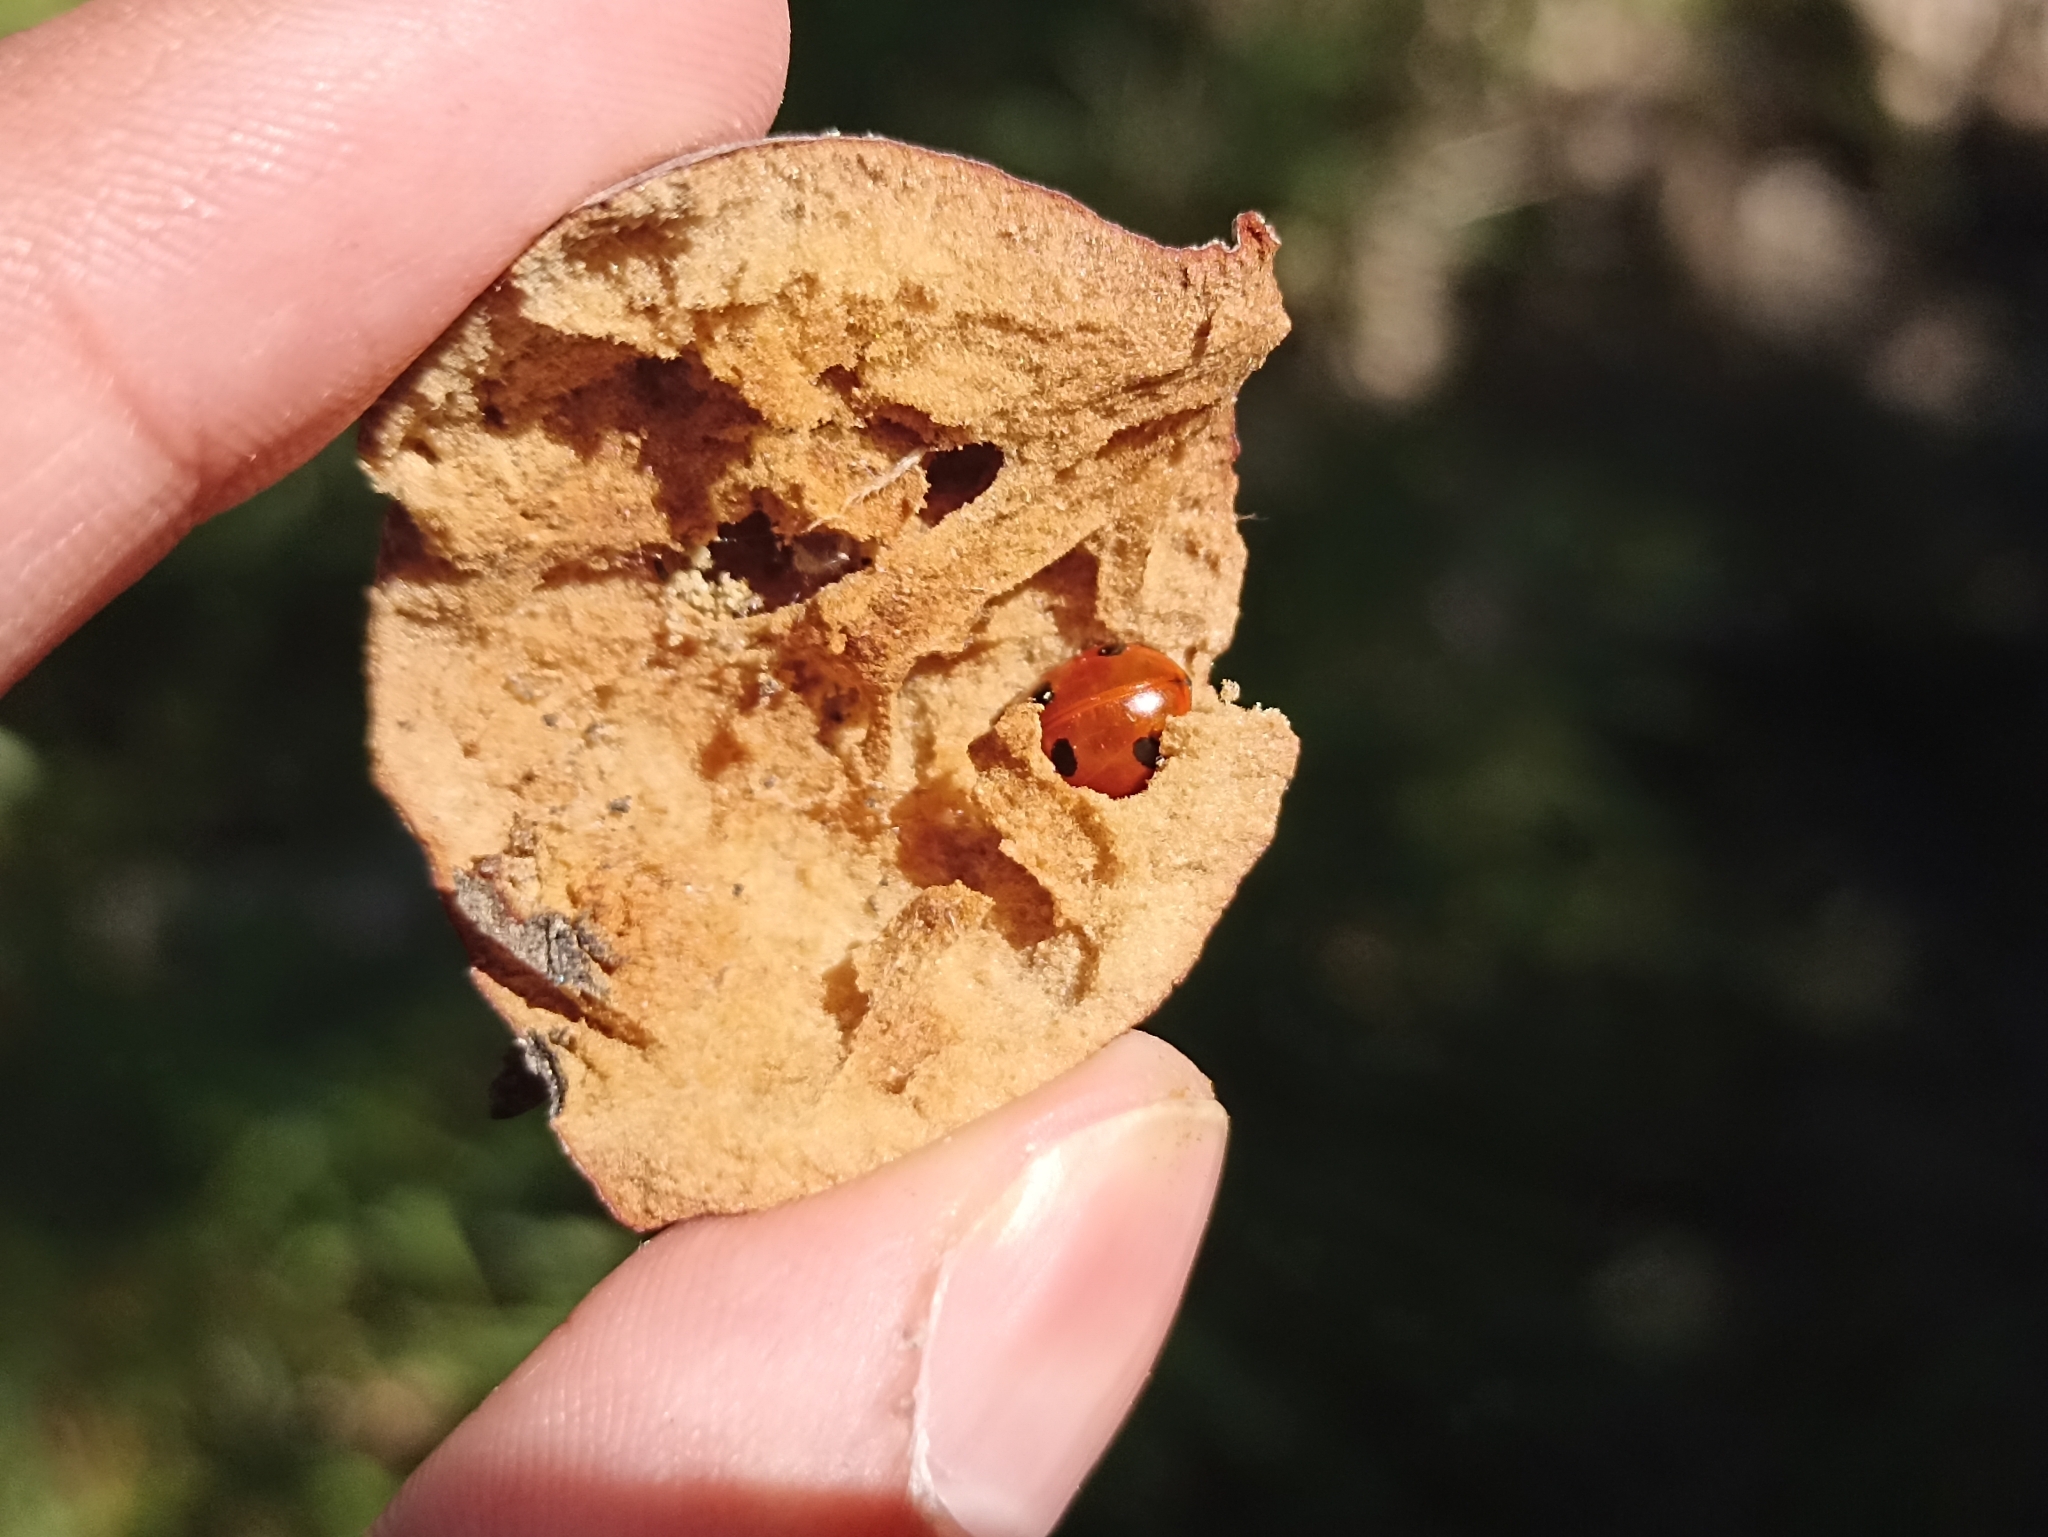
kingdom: Animalia
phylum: Arthropoda
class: Insecta
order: Coleoptera
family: Coccinellidae
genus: Coccinella
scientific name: Coccinella septempunctata
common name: Sevenspotted lady beetle
